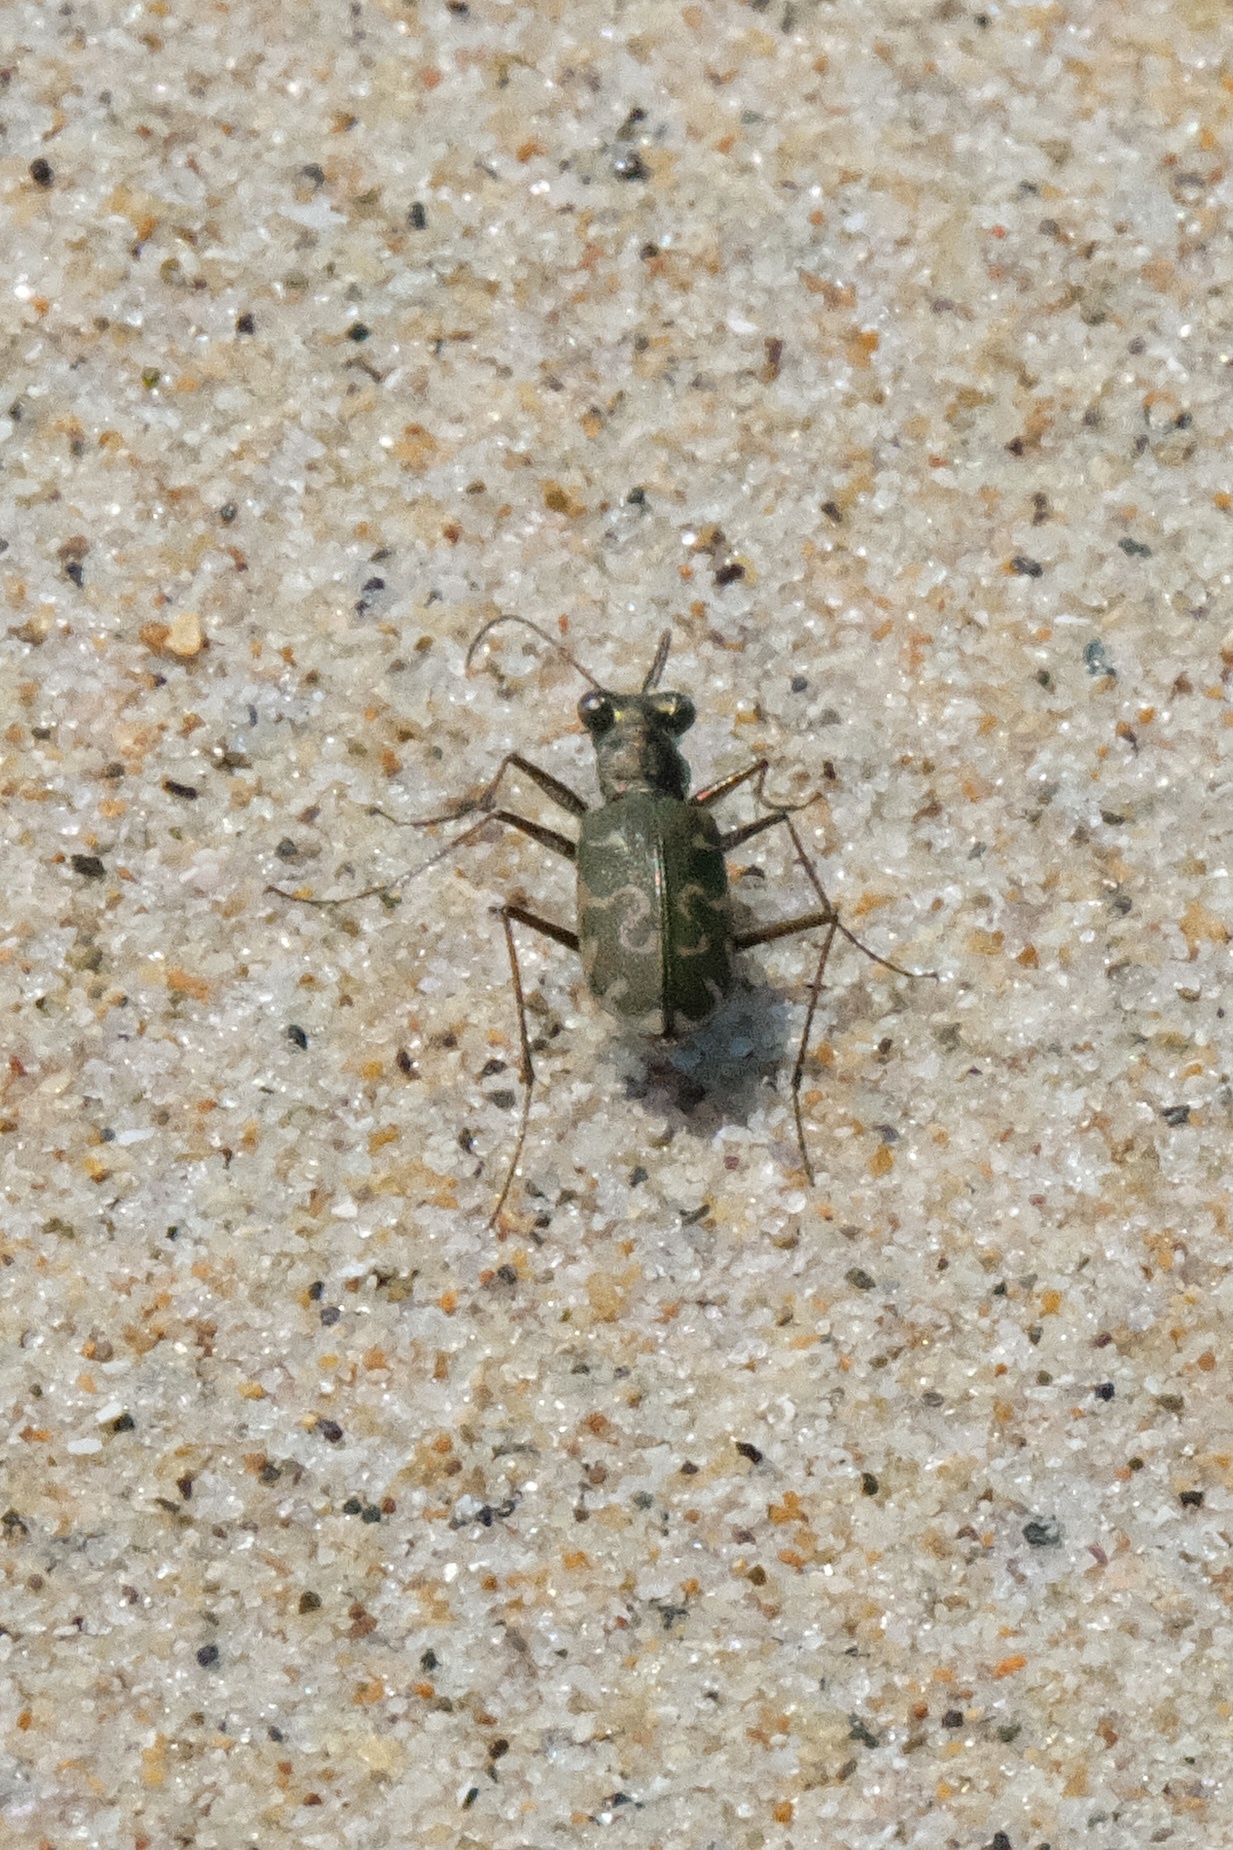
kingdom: Animalia
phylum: Arthropoda
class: Insecta
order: Coleoptera
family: Carabidae
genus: Cicindela
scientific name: Cicindela trifasciata
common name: Mudflat tiger beetle
